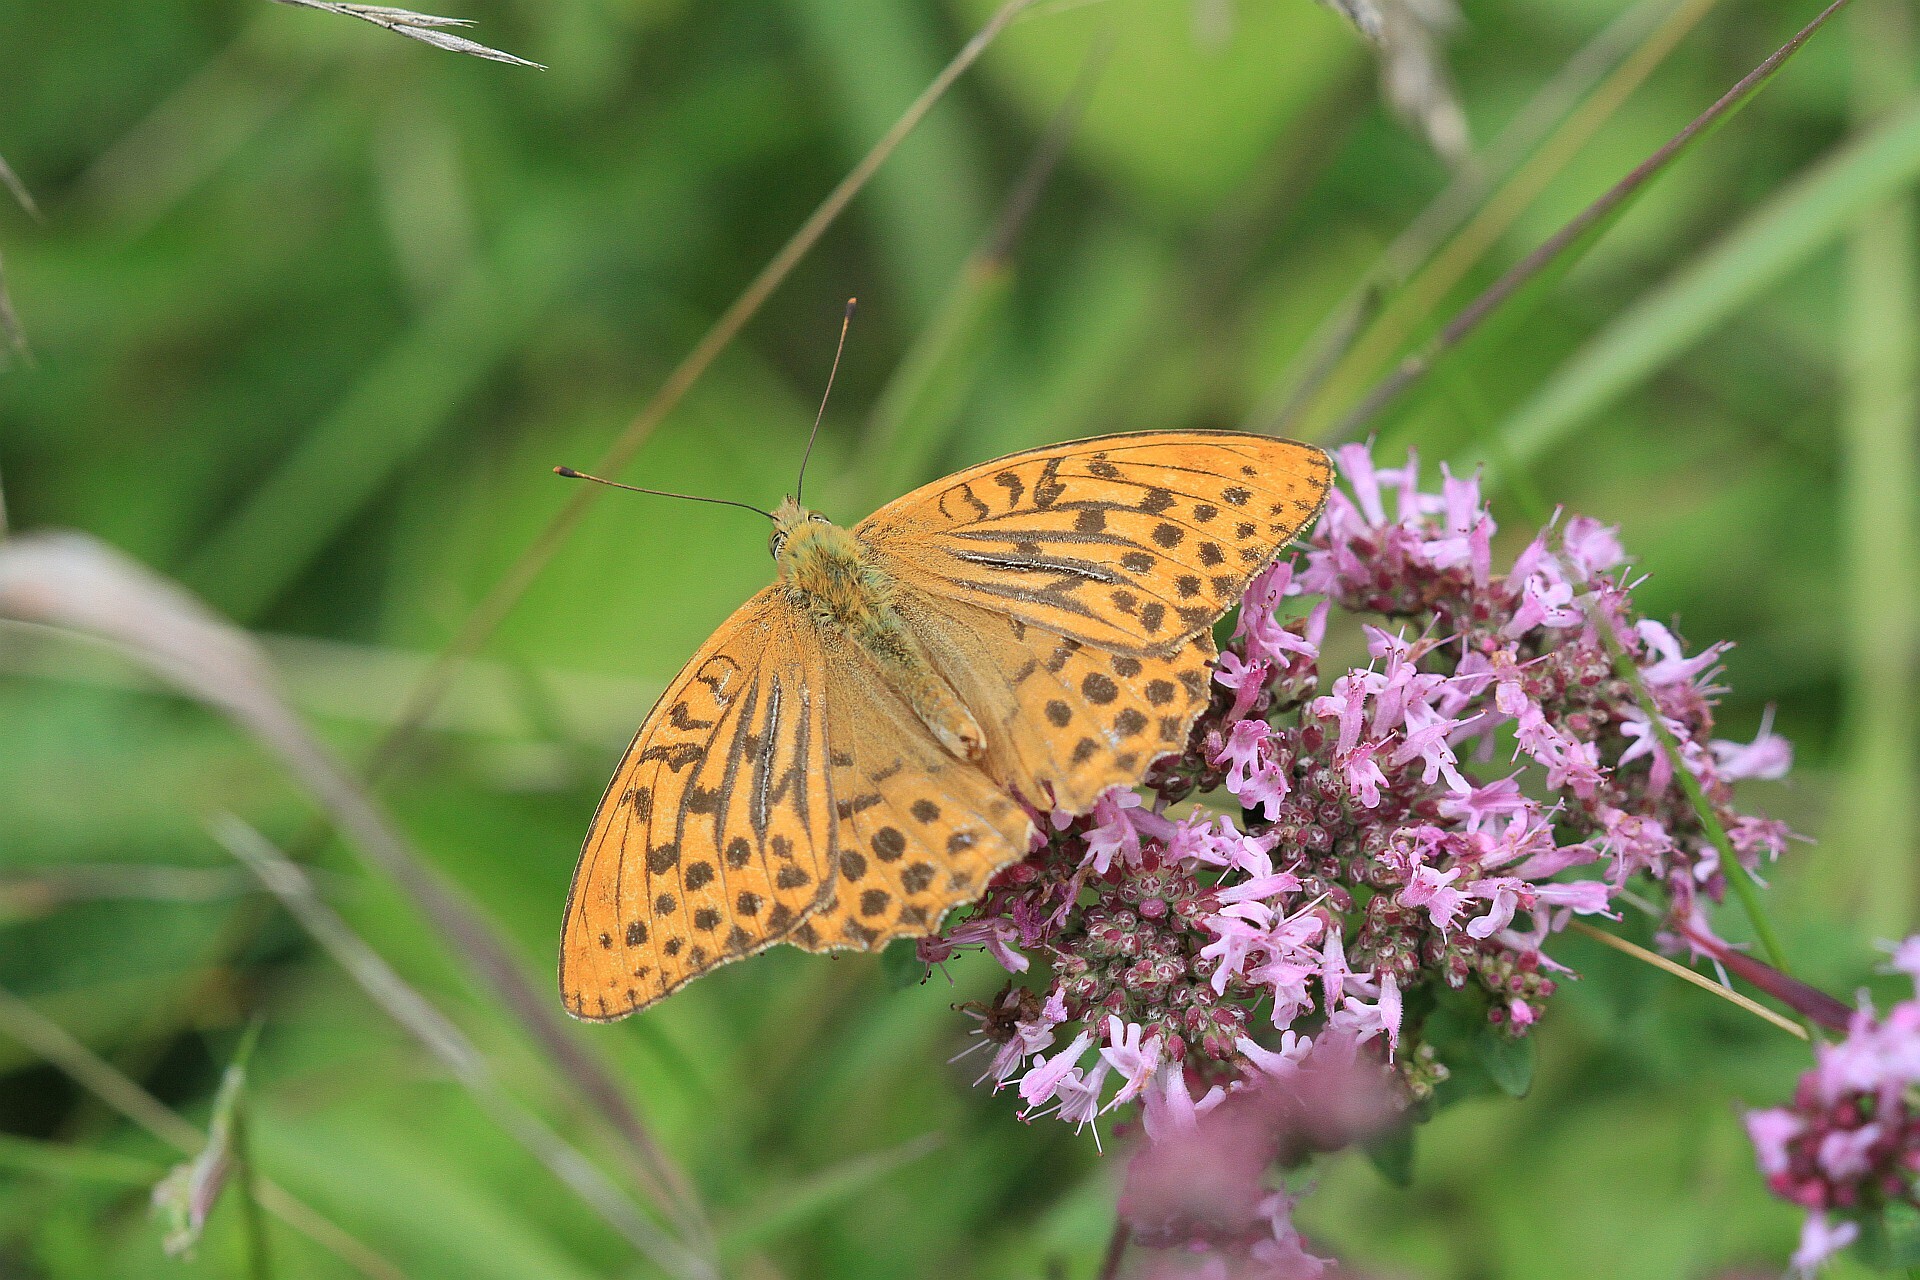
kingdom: Animalia
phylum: Arthropoda
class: Insecta
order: Lepidoptera
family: Nymphalidae
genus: Argynnis
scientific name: Argynnis paphia
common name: Silver-washed fritillary
